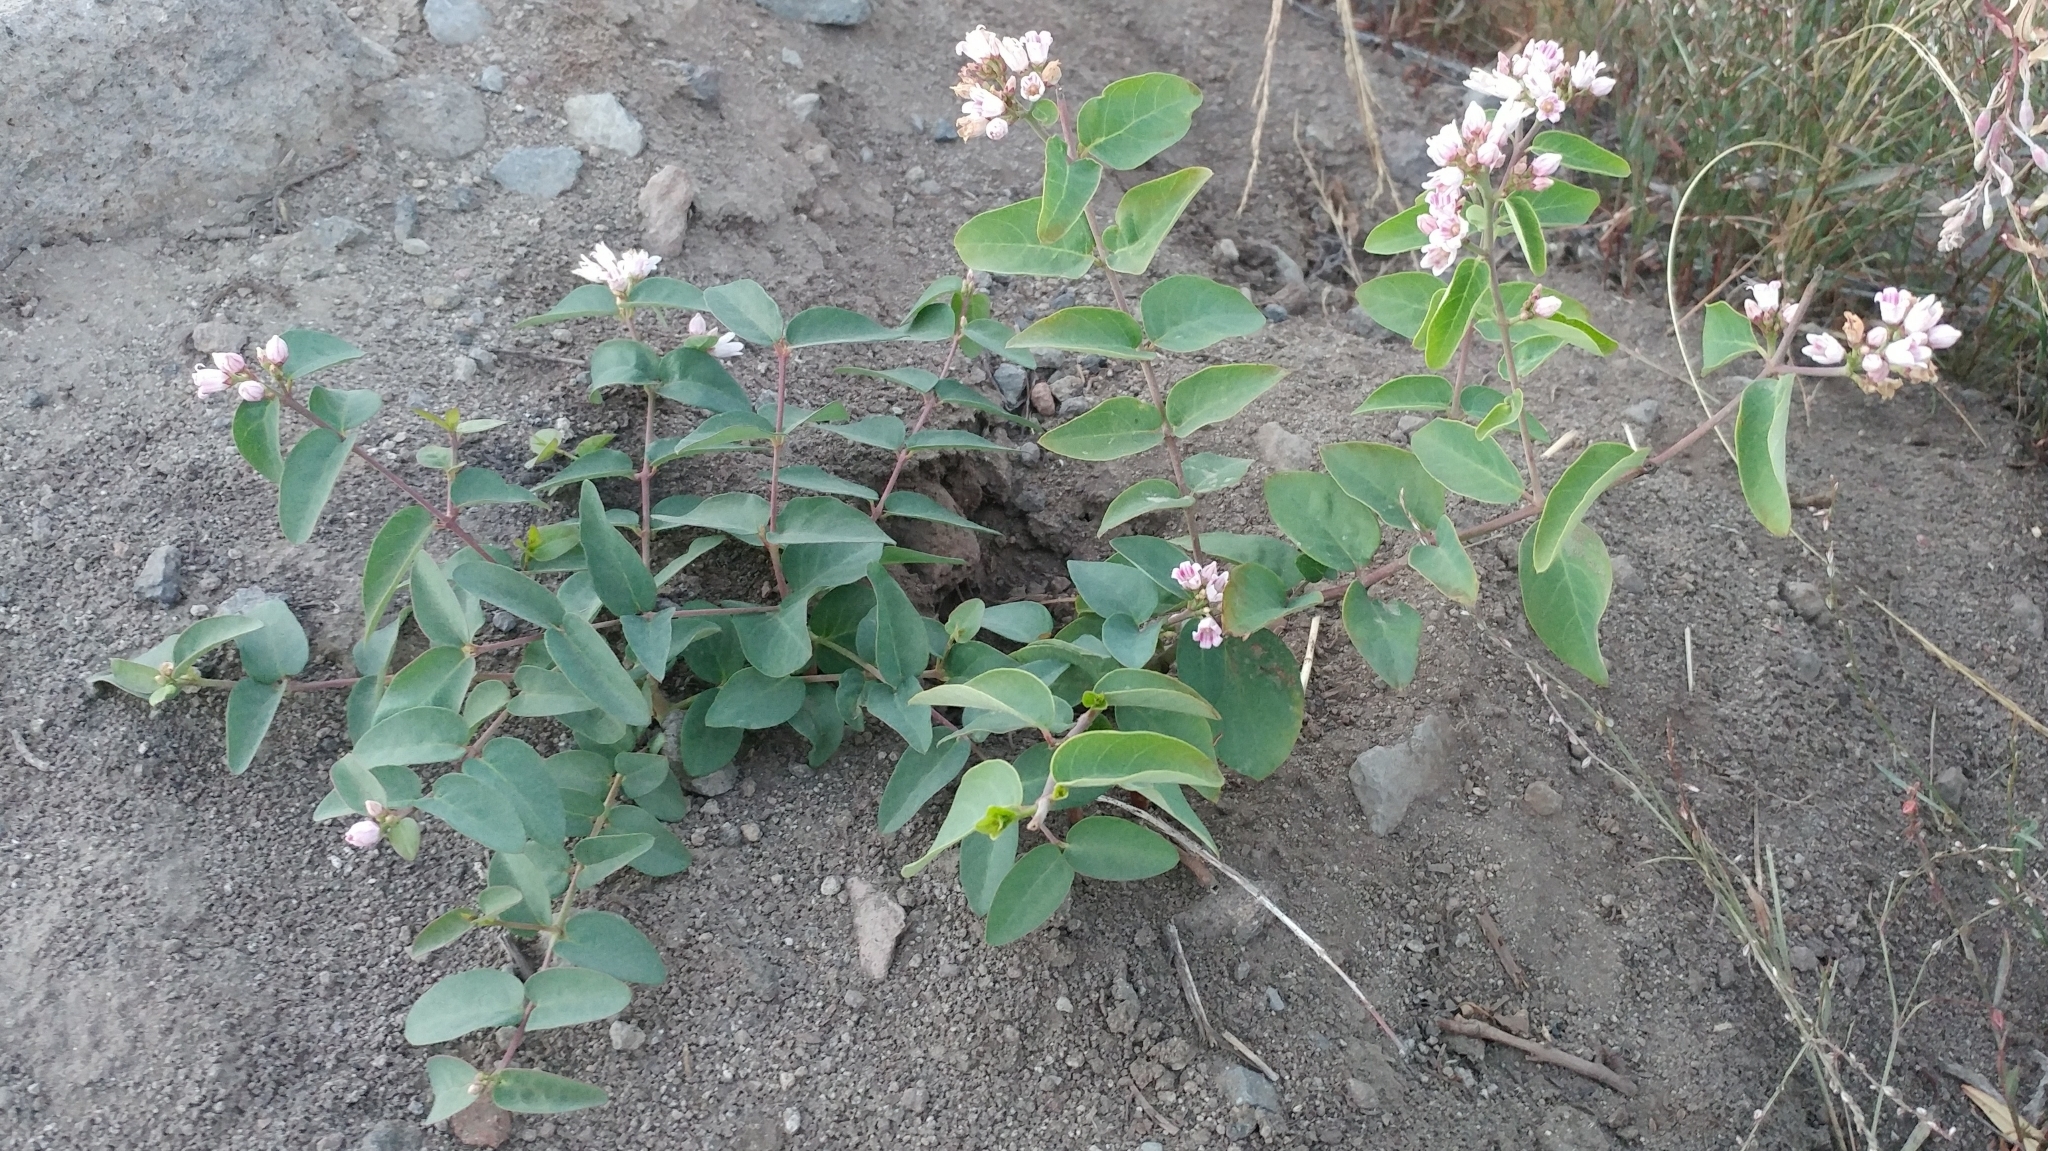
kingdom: Plantae
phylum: Tracheophyta
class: Magnoliopsida
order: Gentianales
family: Apocynaceae
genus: Apocynum
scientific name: Apocynum androsaemifolium
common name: Spreading dogbane
